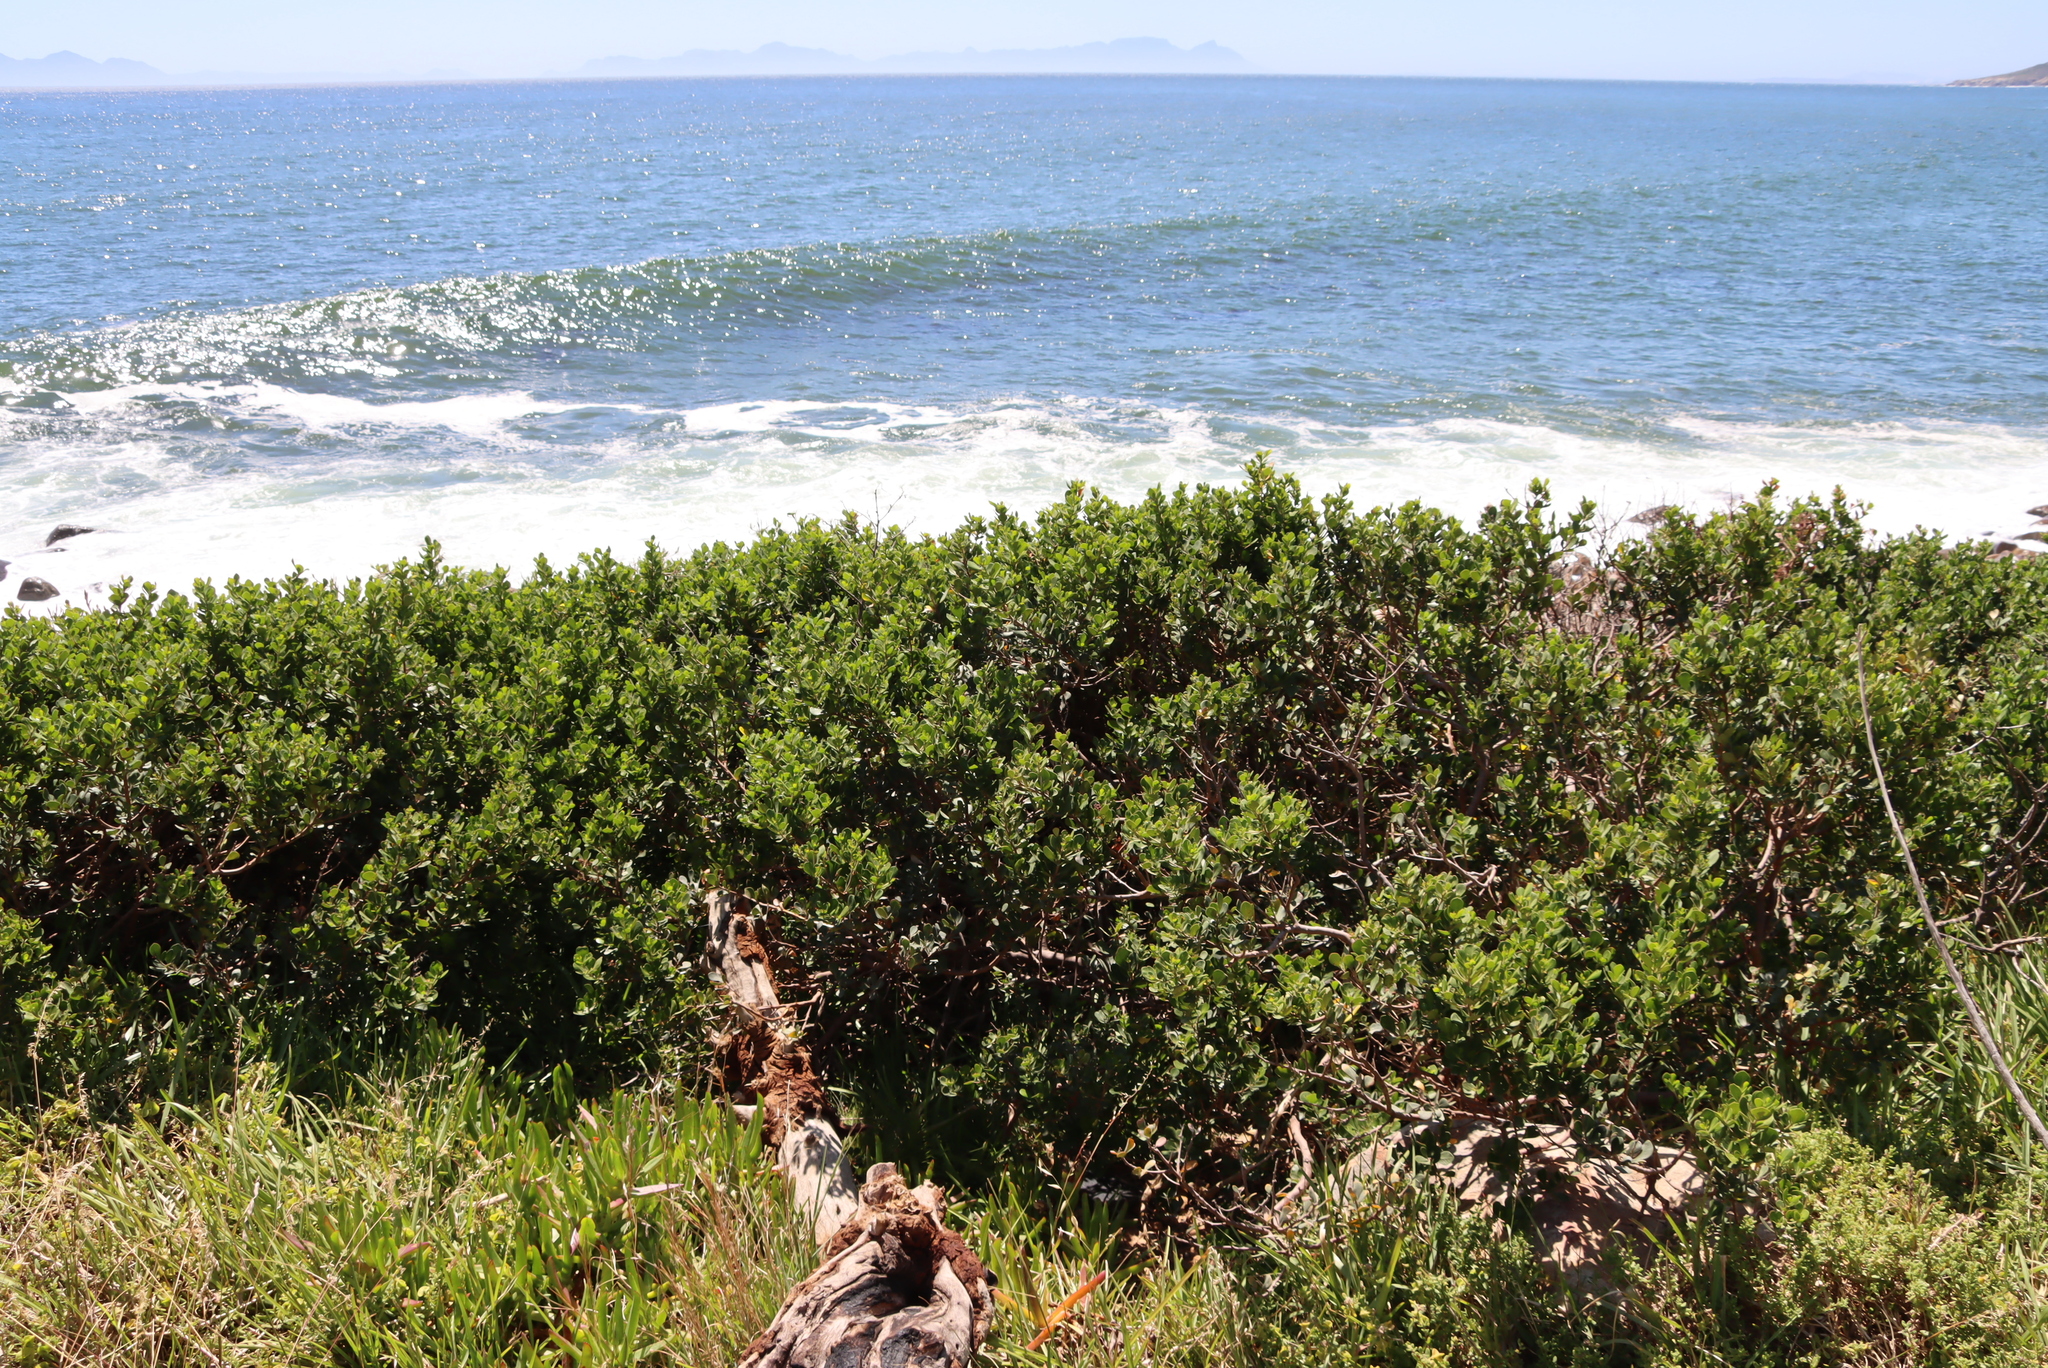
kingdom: Plantae
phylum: Tracheophyta
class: Magnoliopsida
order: Sapindales
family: Anacardiaceae
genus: Searsia
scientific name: Searsia lucida
